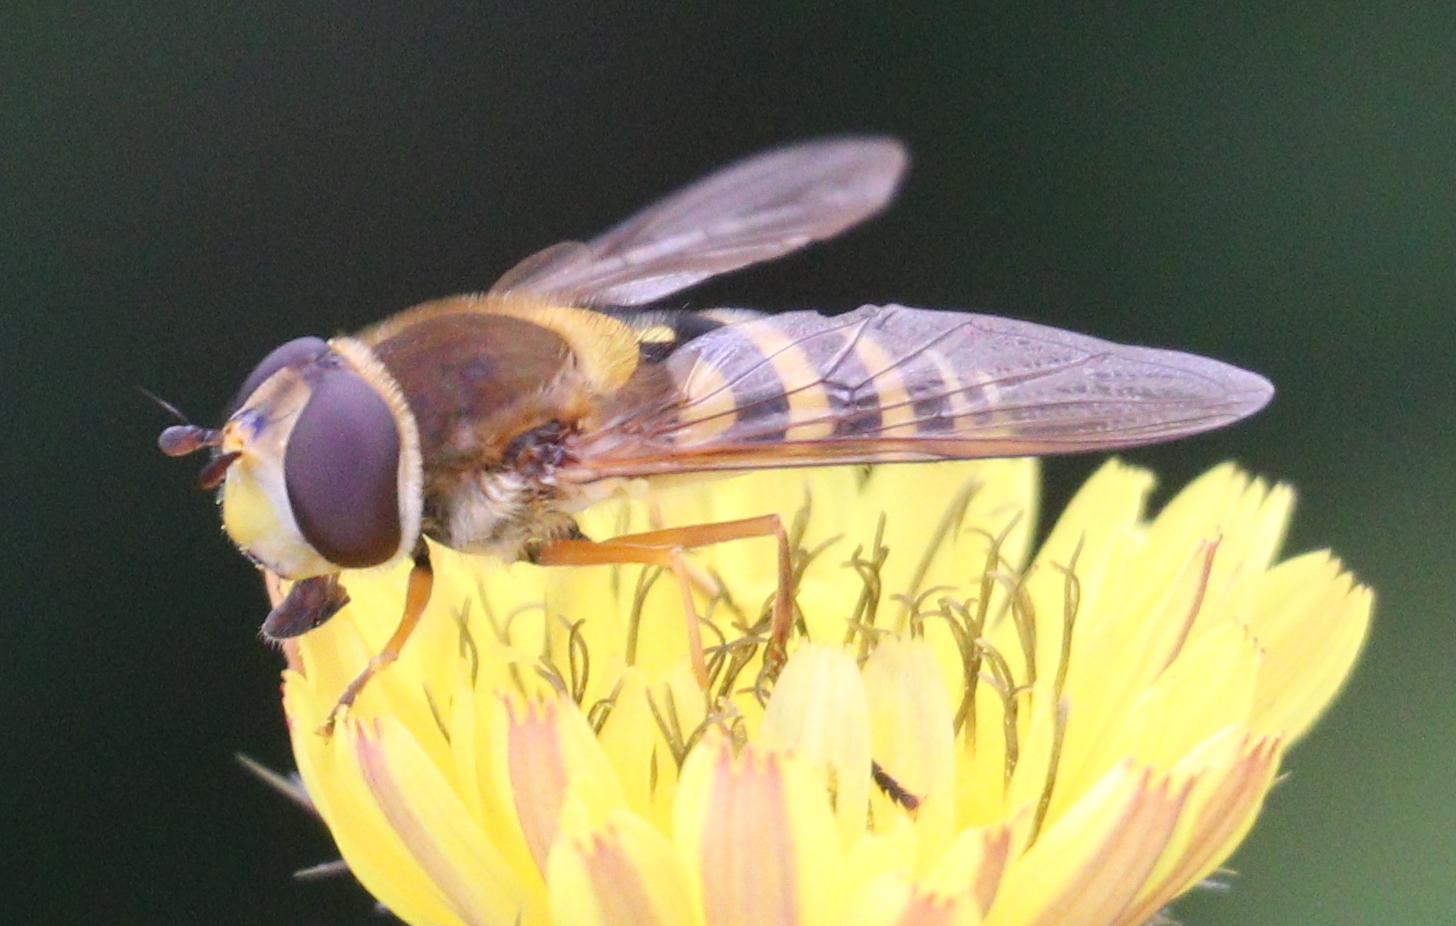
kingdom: Animalia
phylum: Arthropoda
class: Insecta
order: Diptera
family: Syrphidae
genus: Syrphus
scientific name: Syrphus ribesii
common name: Common flower fly
